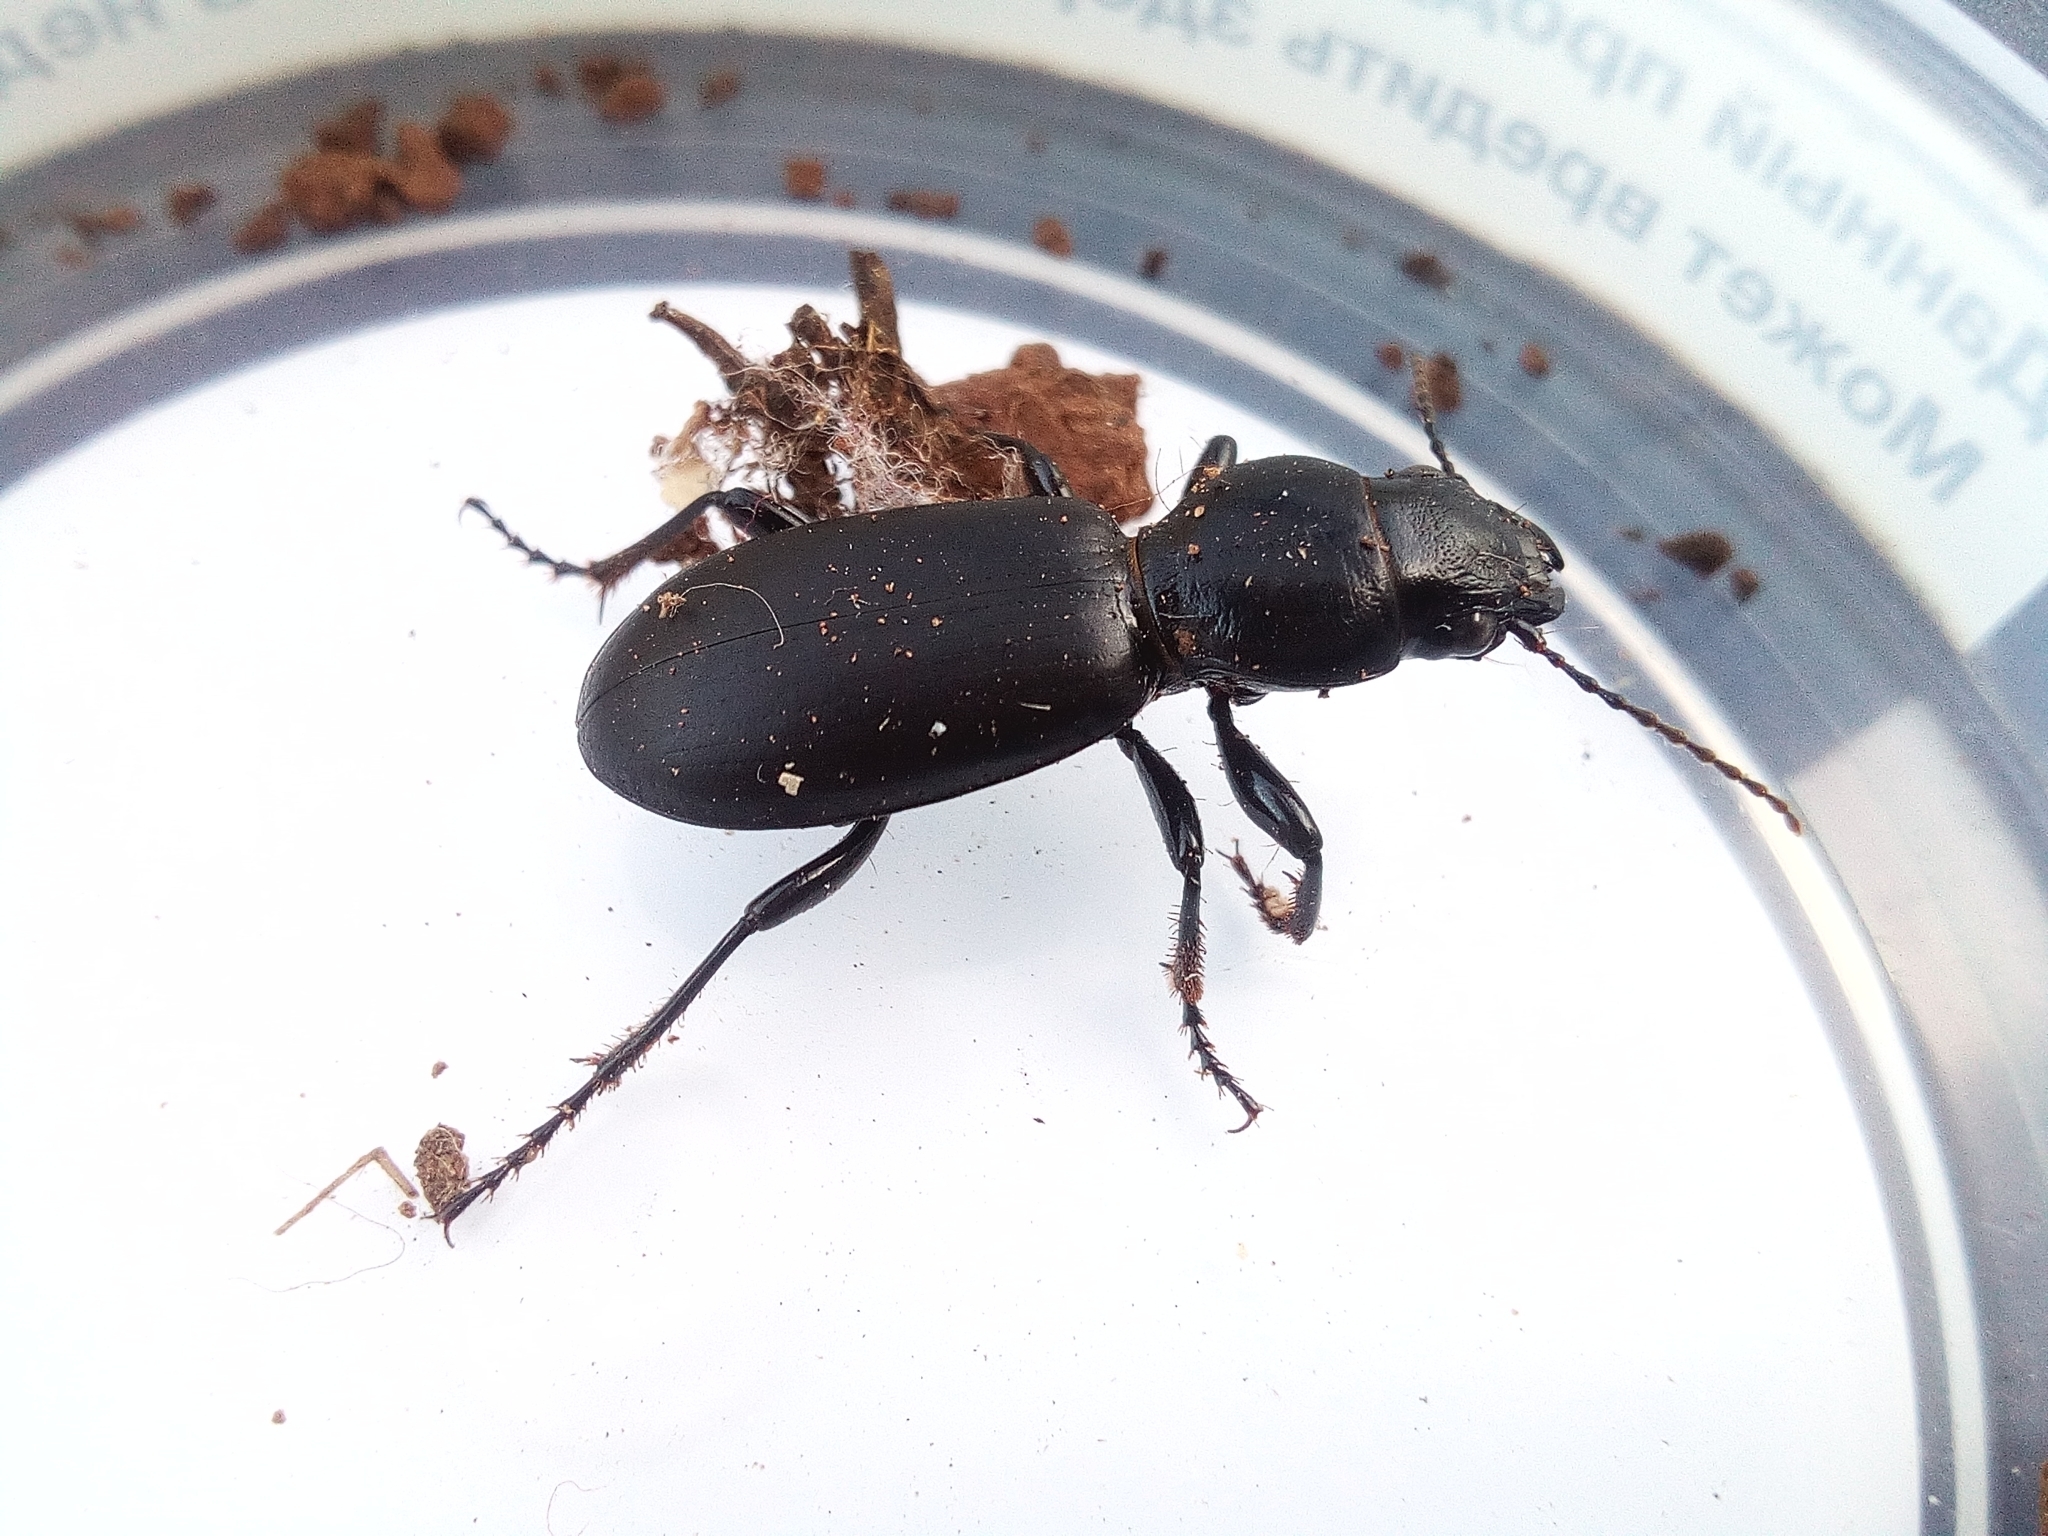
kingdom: Animalia
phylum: Arthropoda
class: Insecta
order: Coleoptera
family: Carabidae
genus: Broscus
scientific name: Broscus cephalotes
